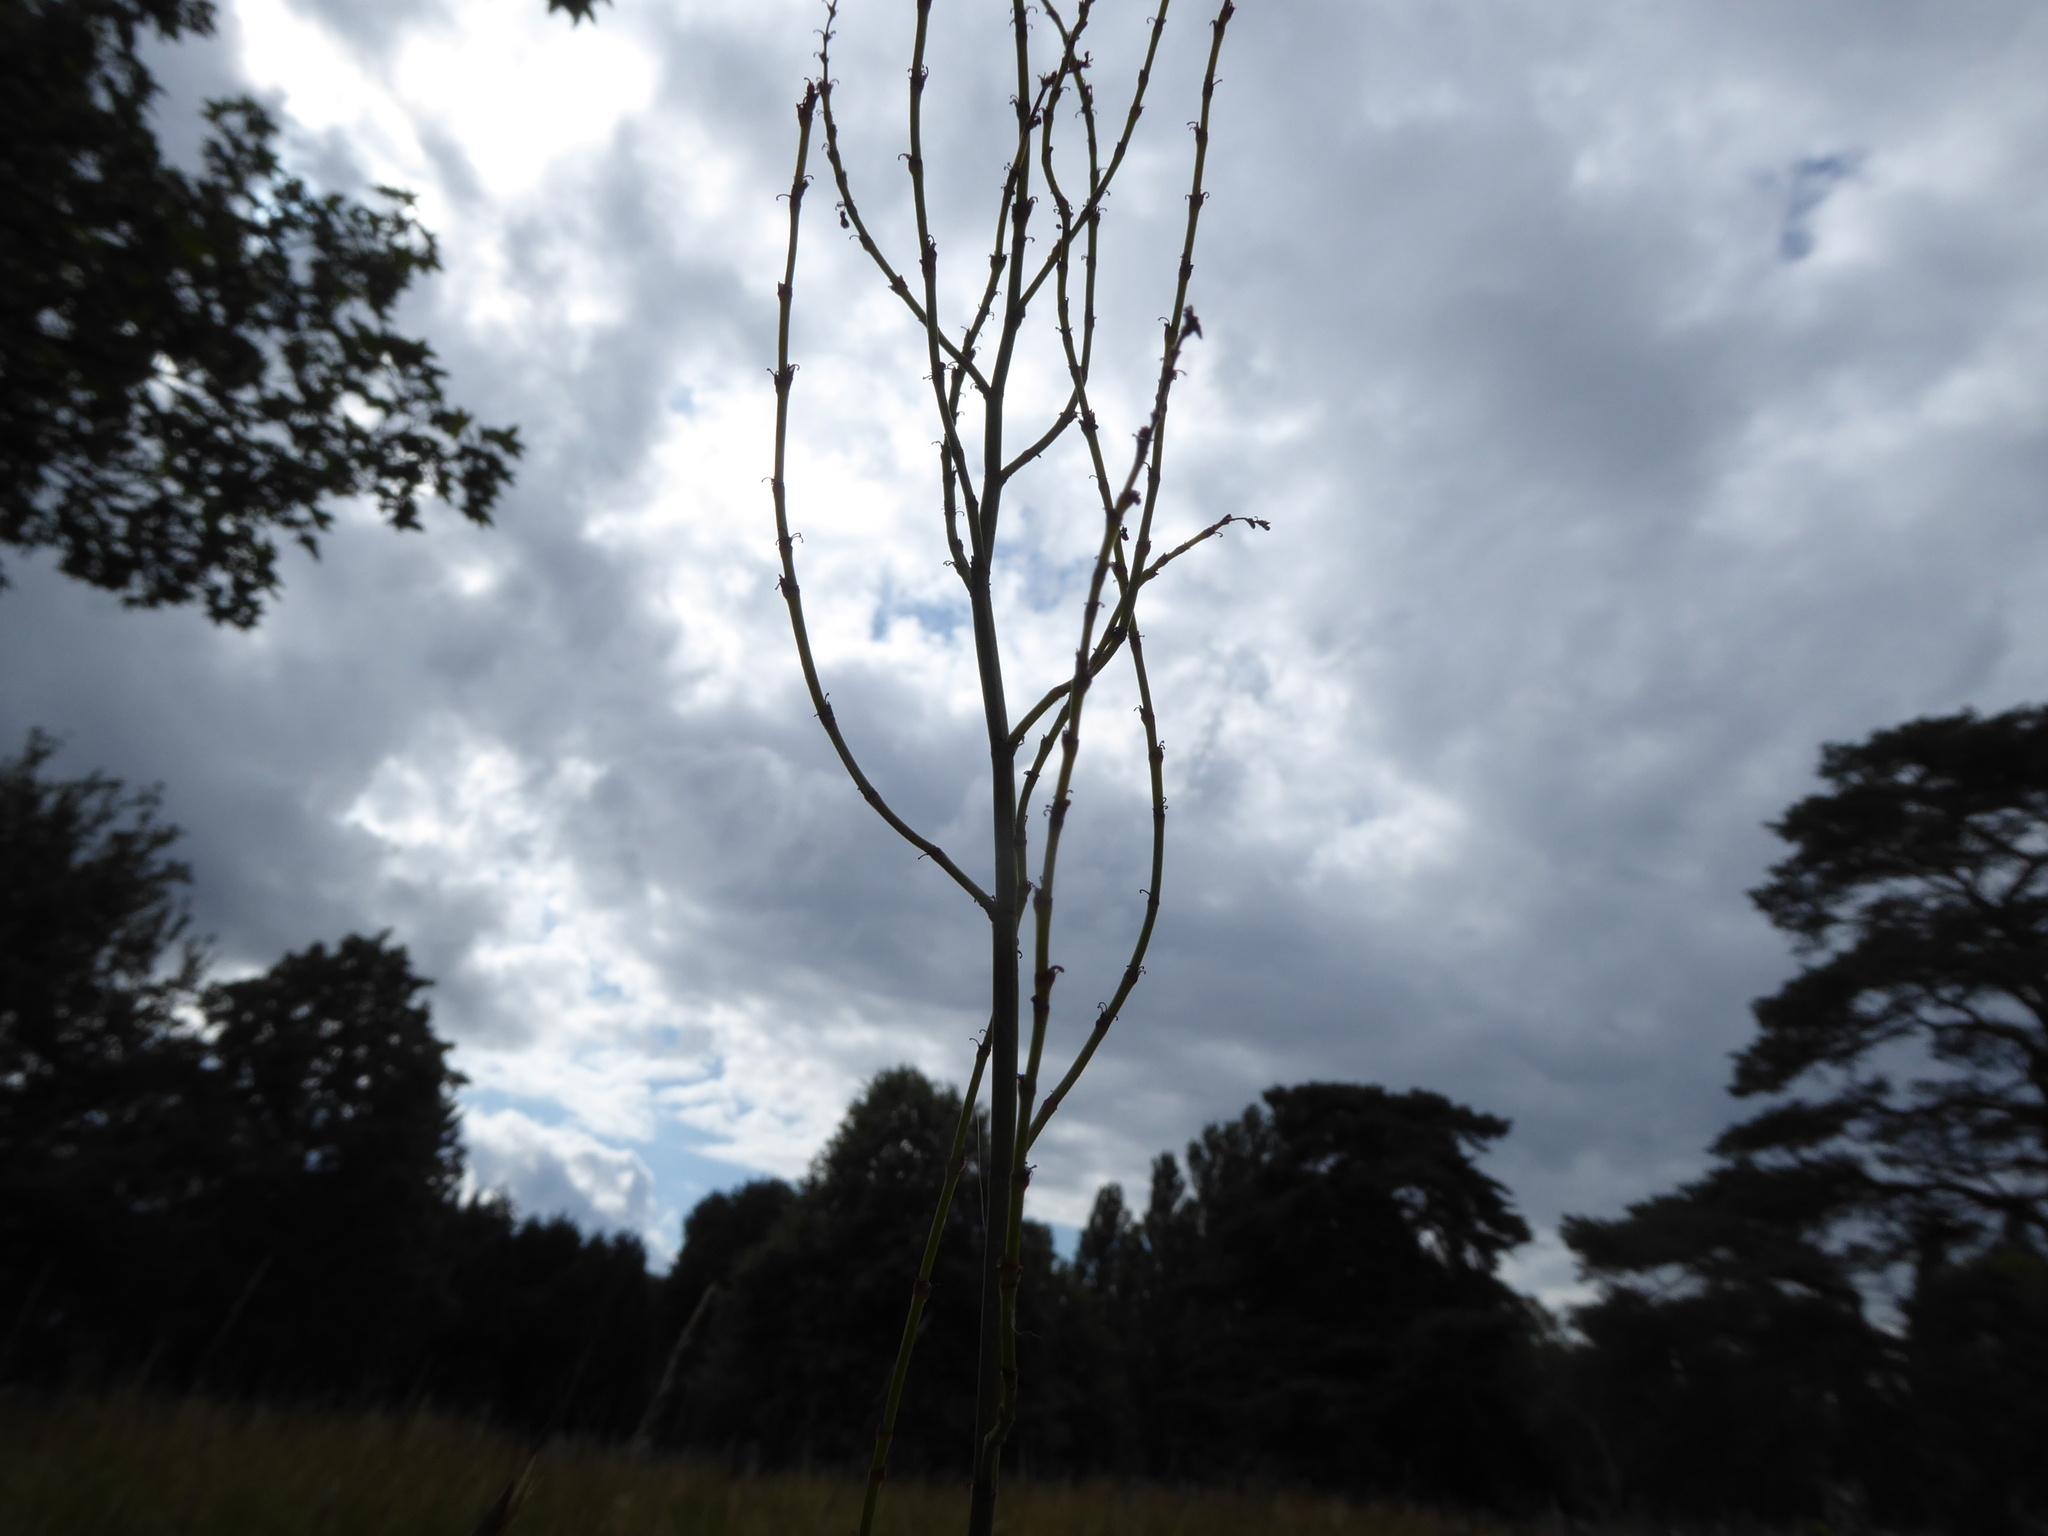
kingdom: Plantae
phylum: Tracheophyta
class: Magnoliopsida
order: Caryophyllales
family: Polygonaceae
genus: Rumex
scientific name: Rumex acetosa
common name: Garden sorrel
